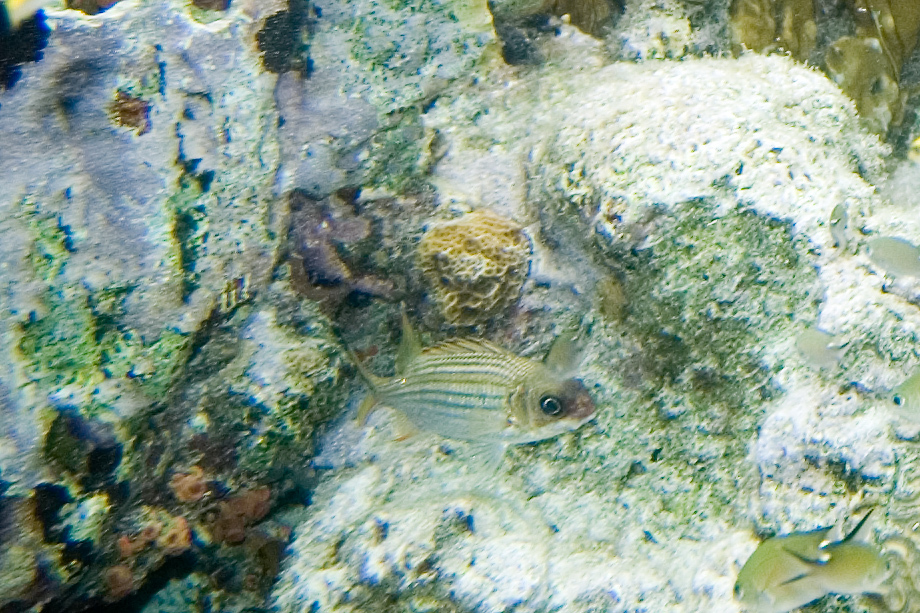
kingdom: Animalia
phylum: Chordata
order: Beryciformes
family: Holocentridae
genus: Neoniphon
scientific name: Neoniphon vexillarium
